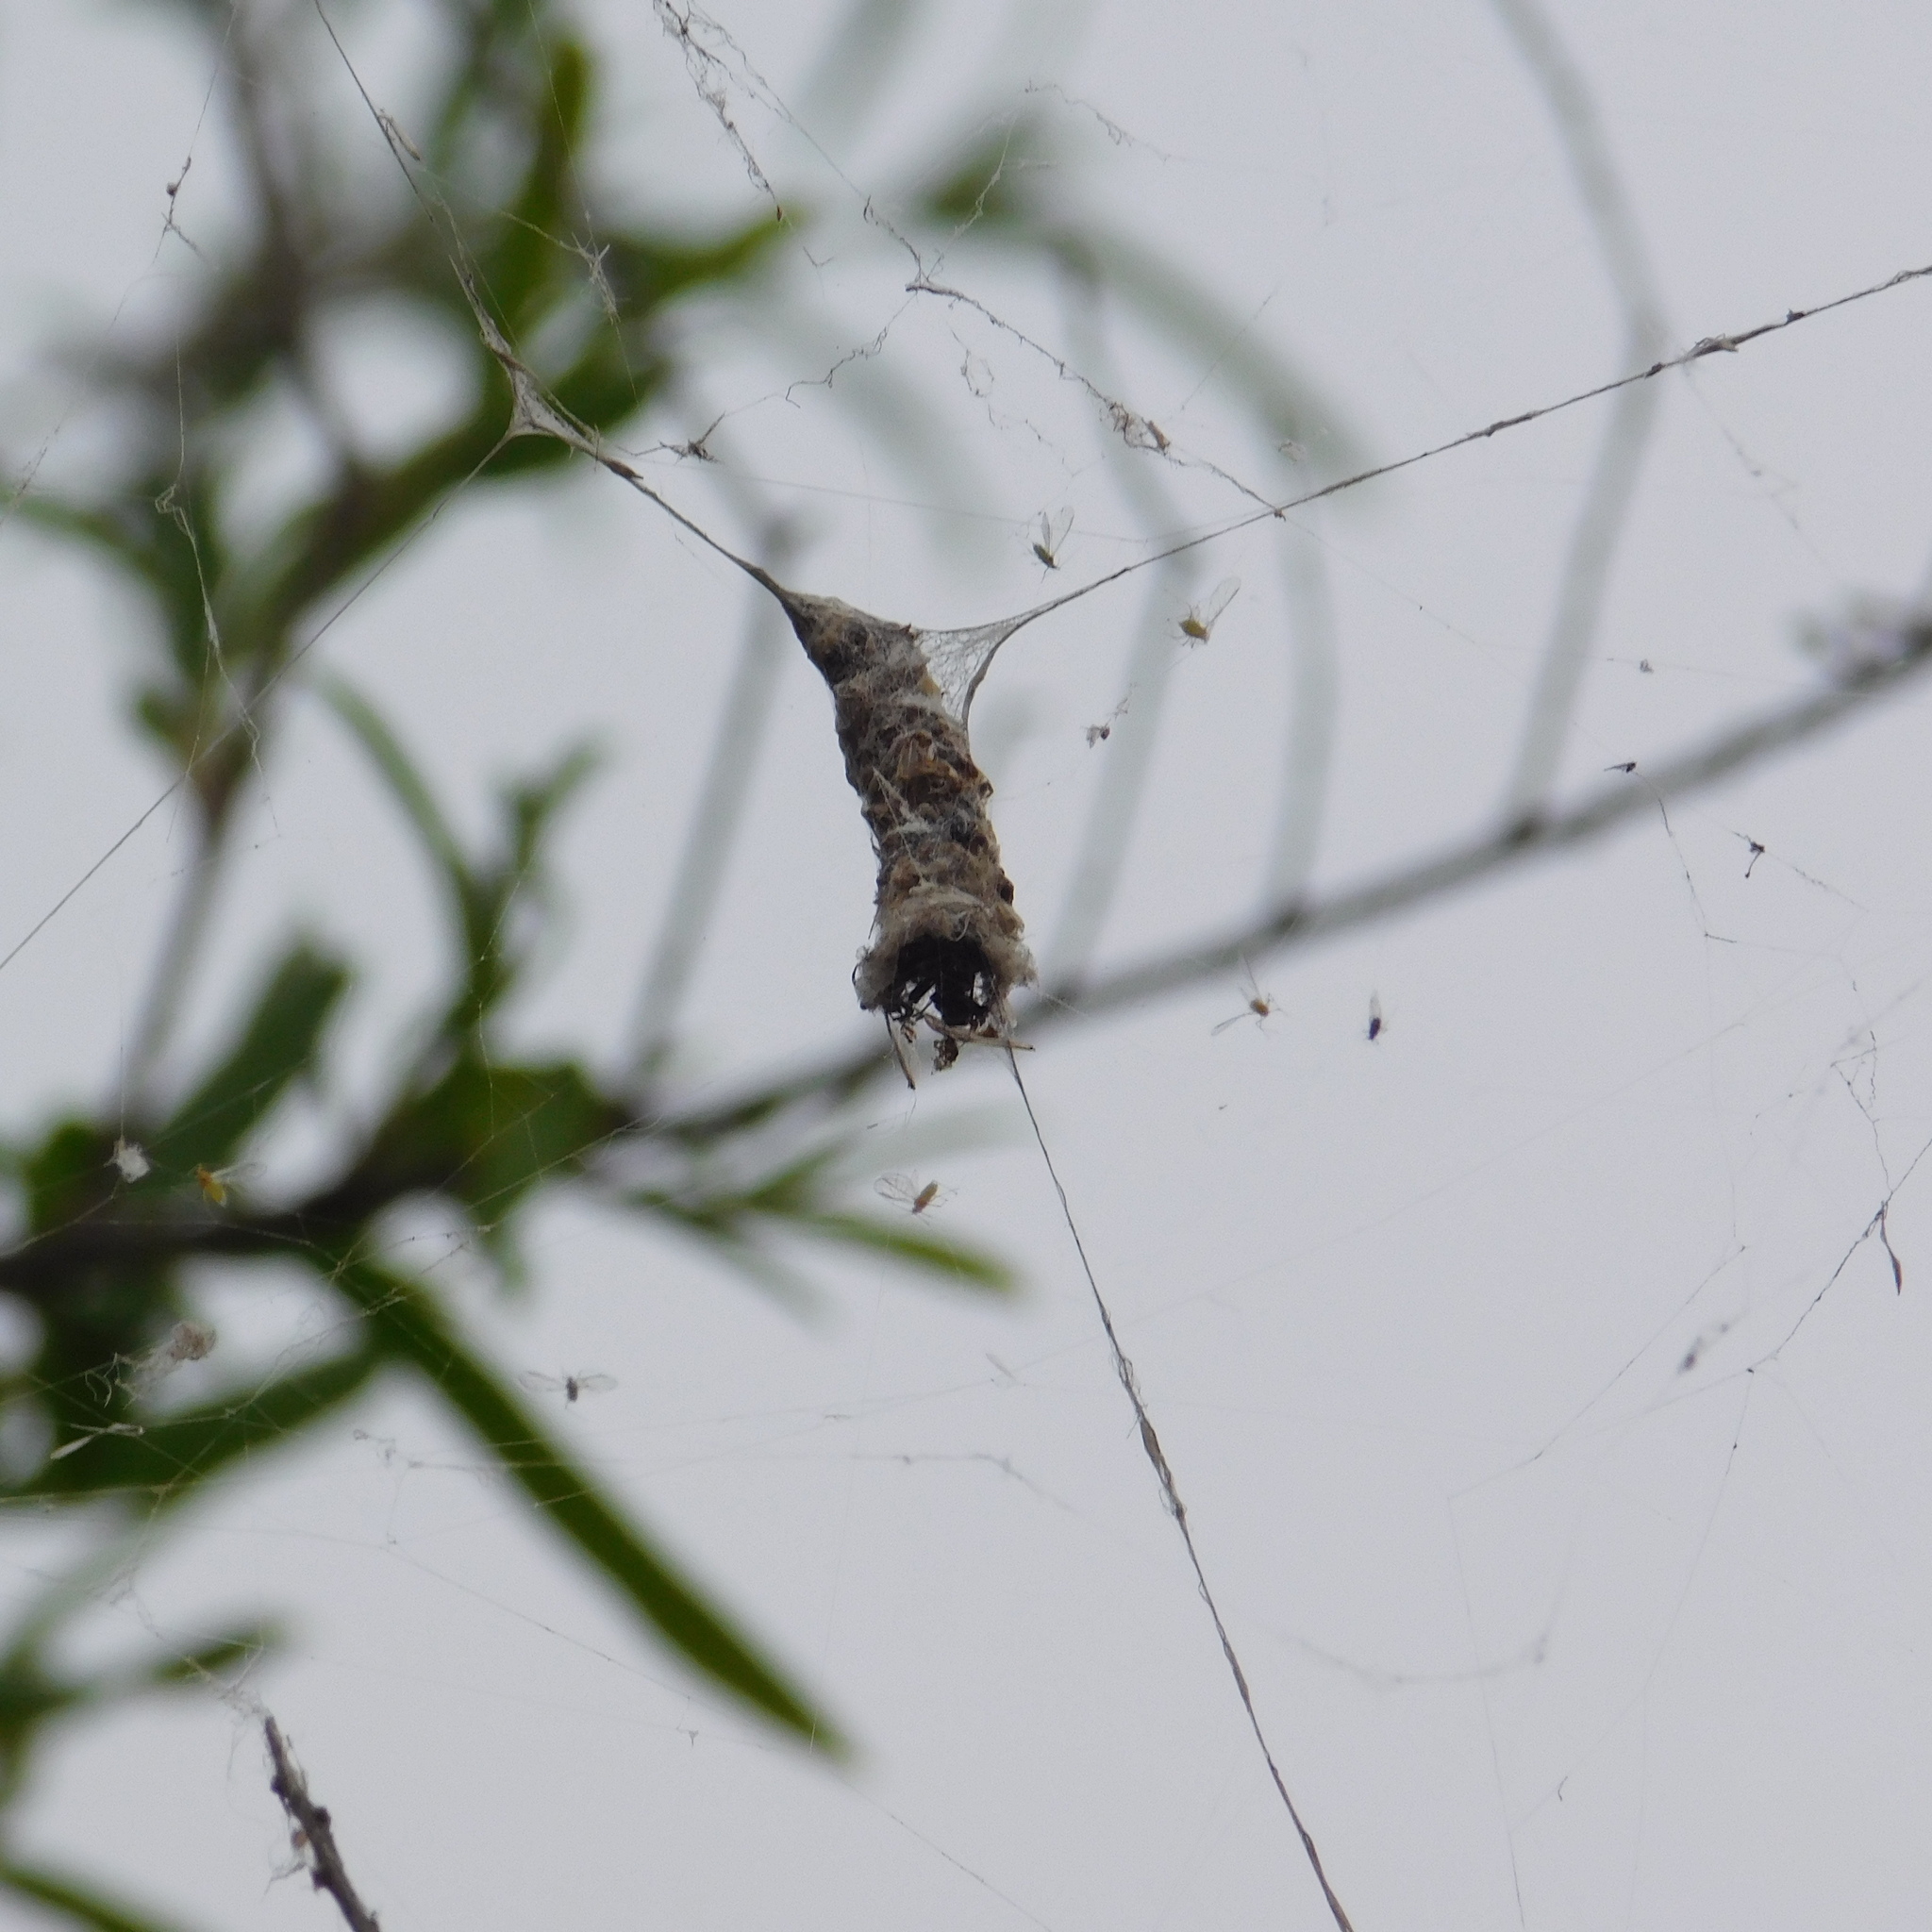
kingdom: Animalia
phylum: Arthropoda
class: Arachnida
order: Araneae
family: Araneidae
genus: Metepeira
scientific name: Metepeira
